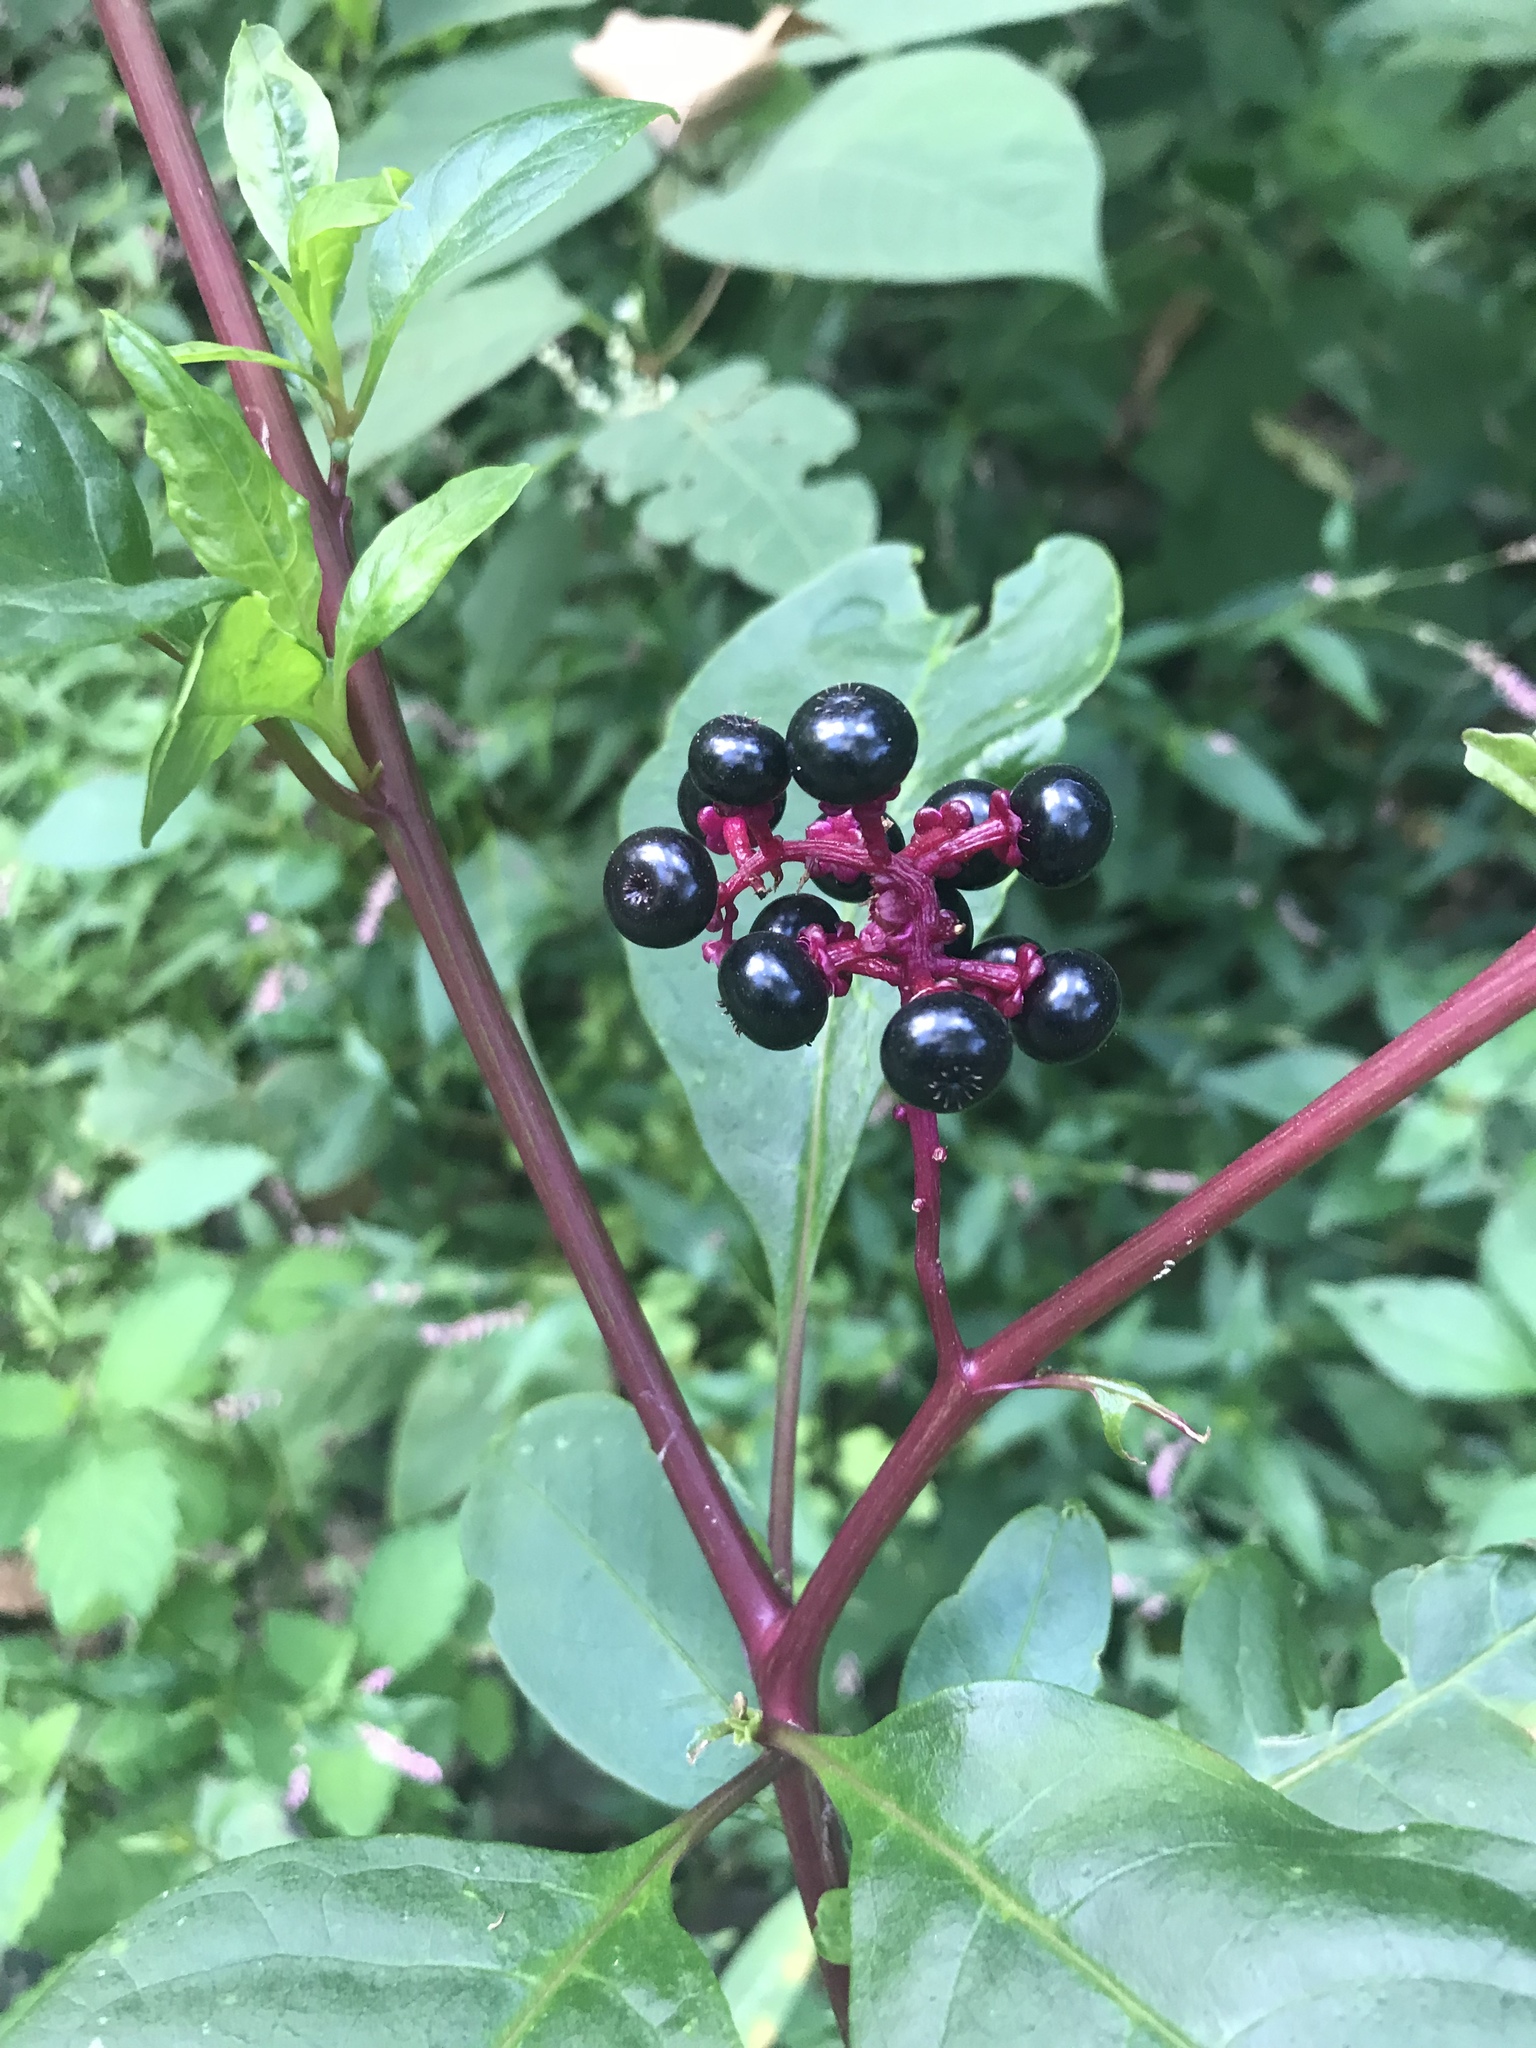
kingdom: Plantae
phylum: Tracheophyta
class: Magnoliopsida
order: Caryophyllales
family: Phytolaccaceae
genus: Phytolacca
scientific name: Phytolacca americana
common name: American pokeweed
